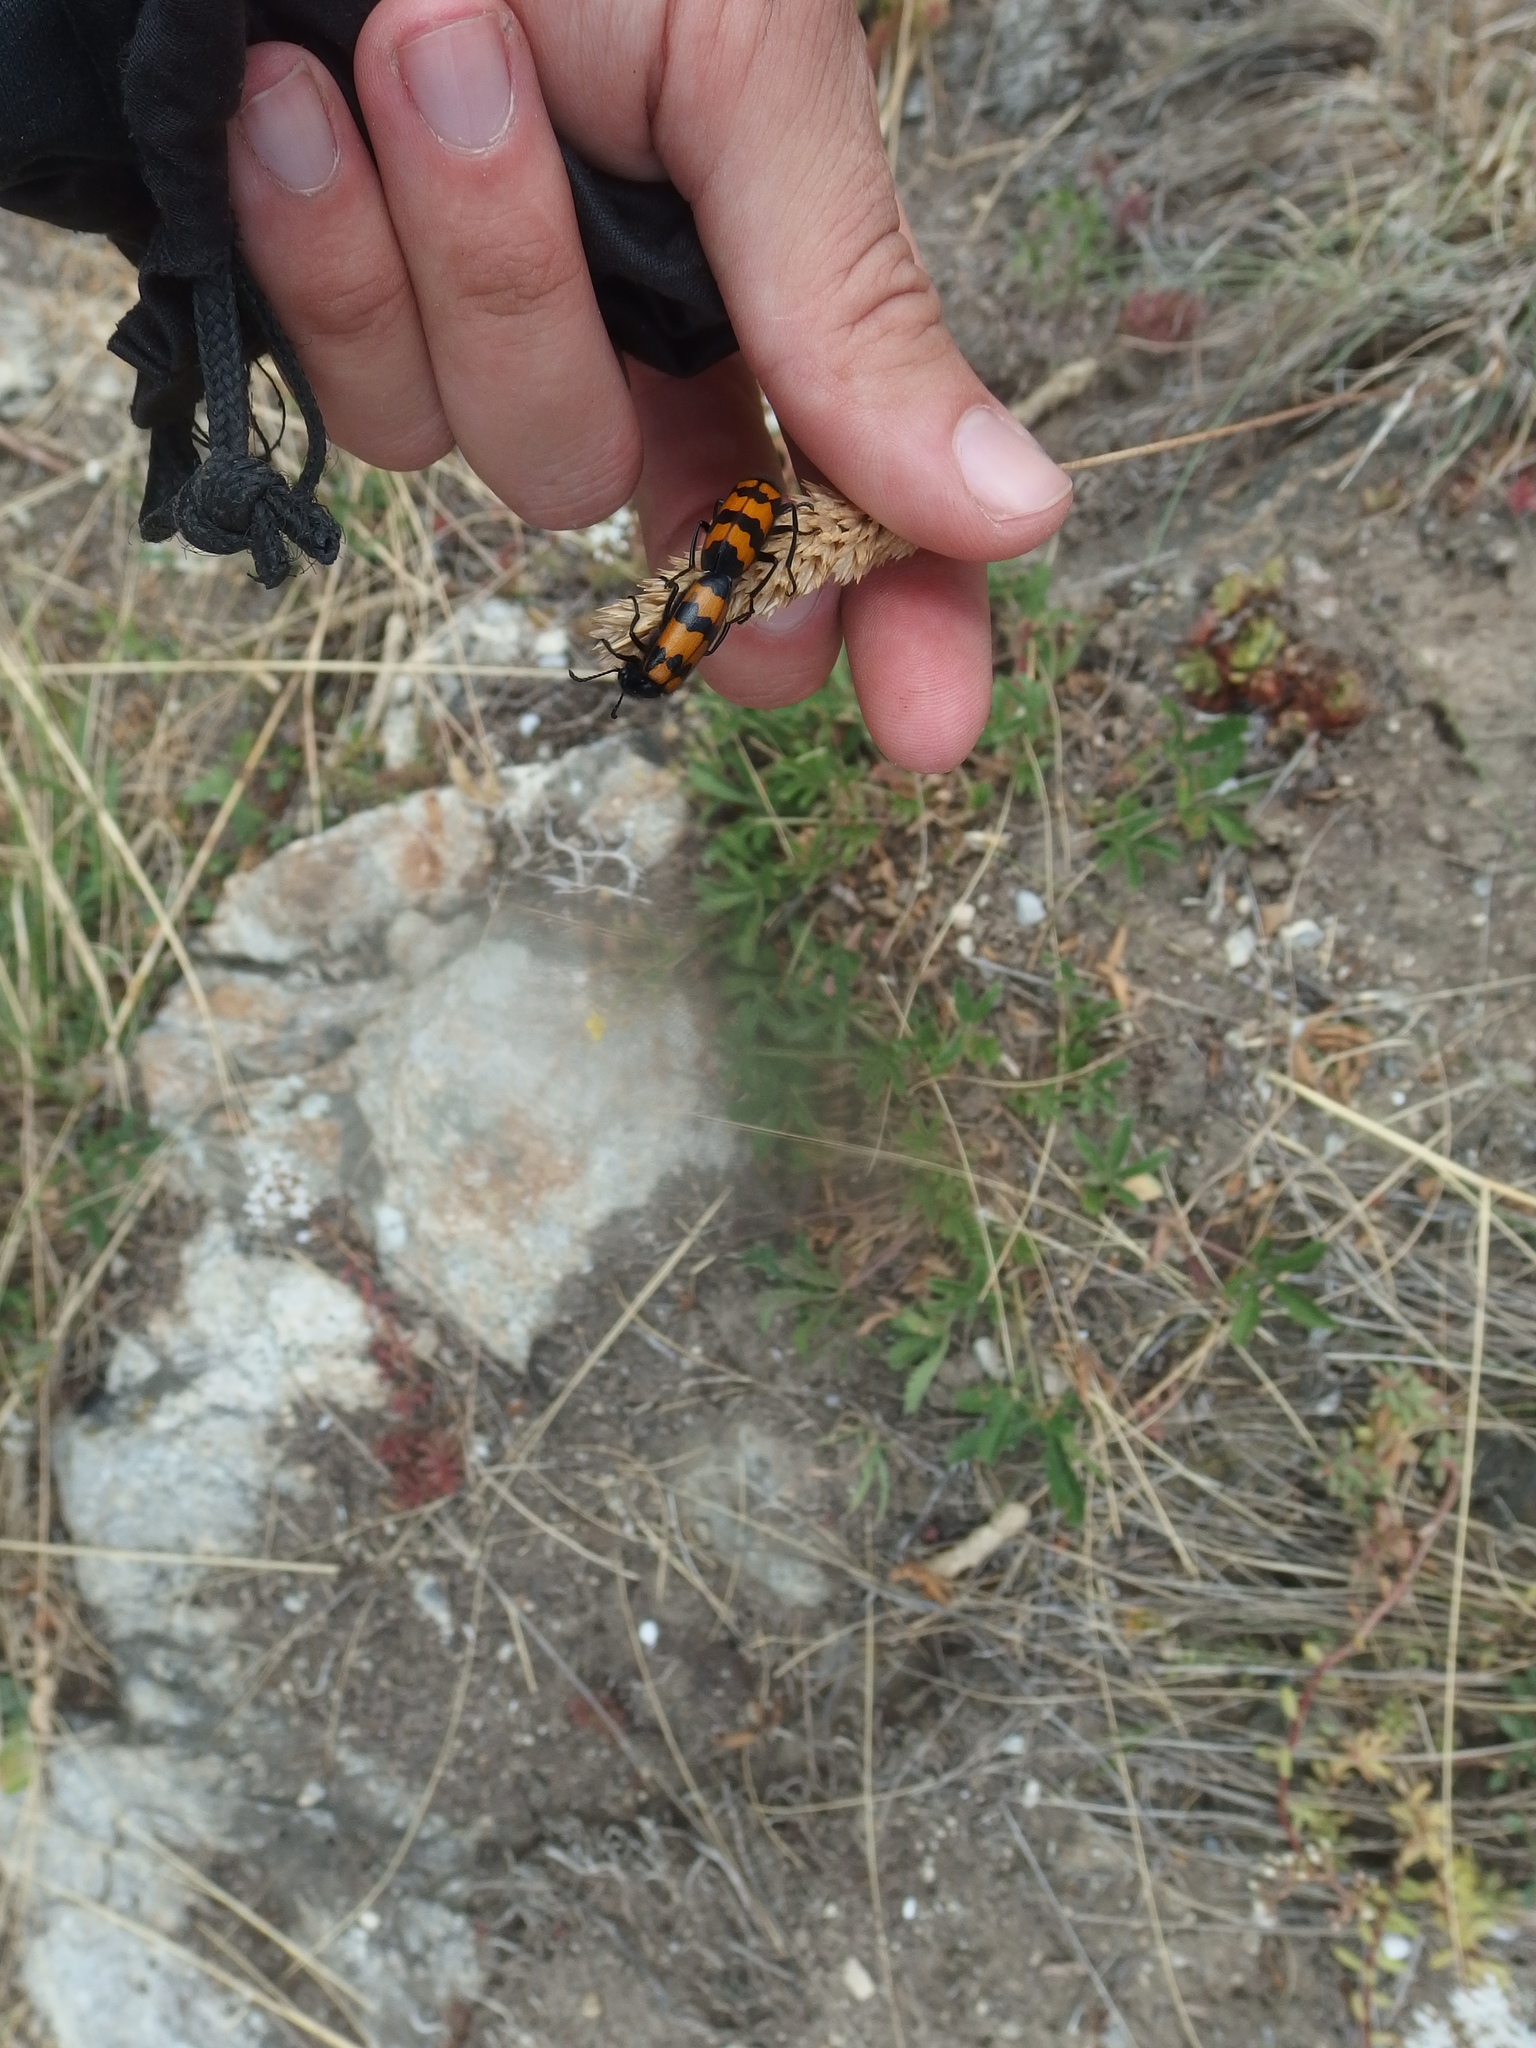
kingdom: Animalia
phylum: Arthropoda
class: Insecta
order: Coleoptera
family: Meloidae
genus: Mylabris
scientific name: Mylabris variabilis
